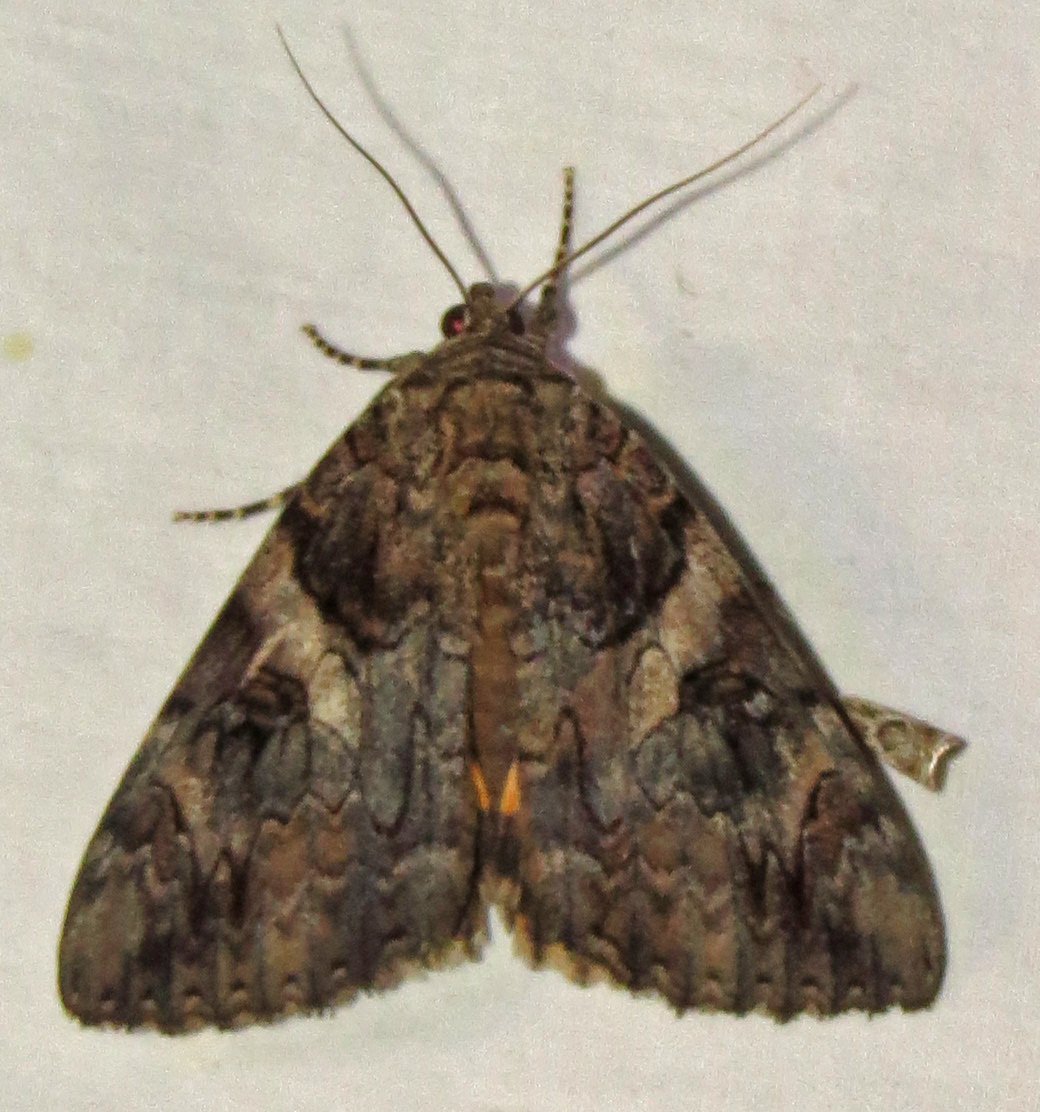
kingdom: Animalia
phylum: Arthropoda
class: Insecta
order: Lepidoptera
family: Erebidae
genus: Catocala
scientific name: Catocala piatrix
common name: The penitent underwing
